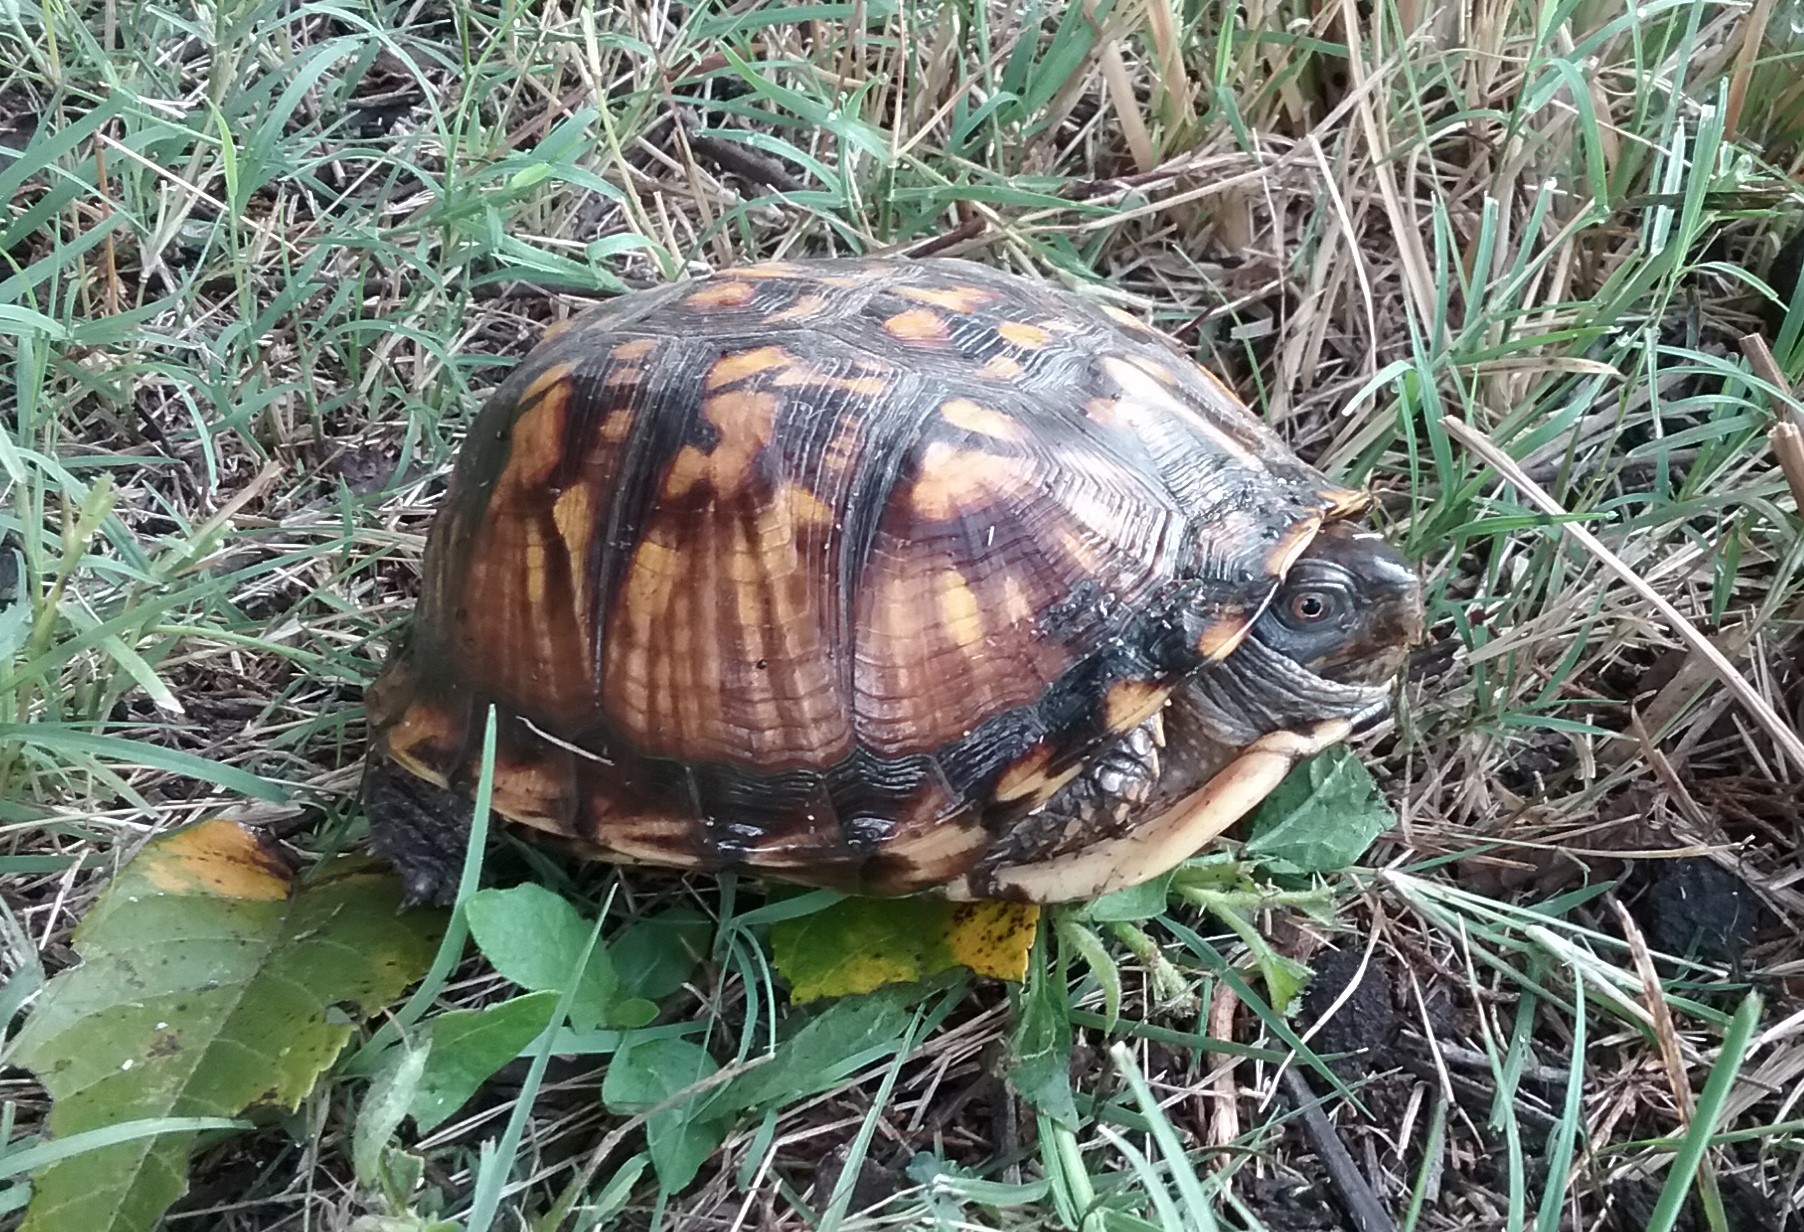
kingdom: Animalia
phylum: Chordata
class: Testudines
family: Emydidae
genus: Terrapene
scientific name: Terrapene carolina
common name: Common box turtle
